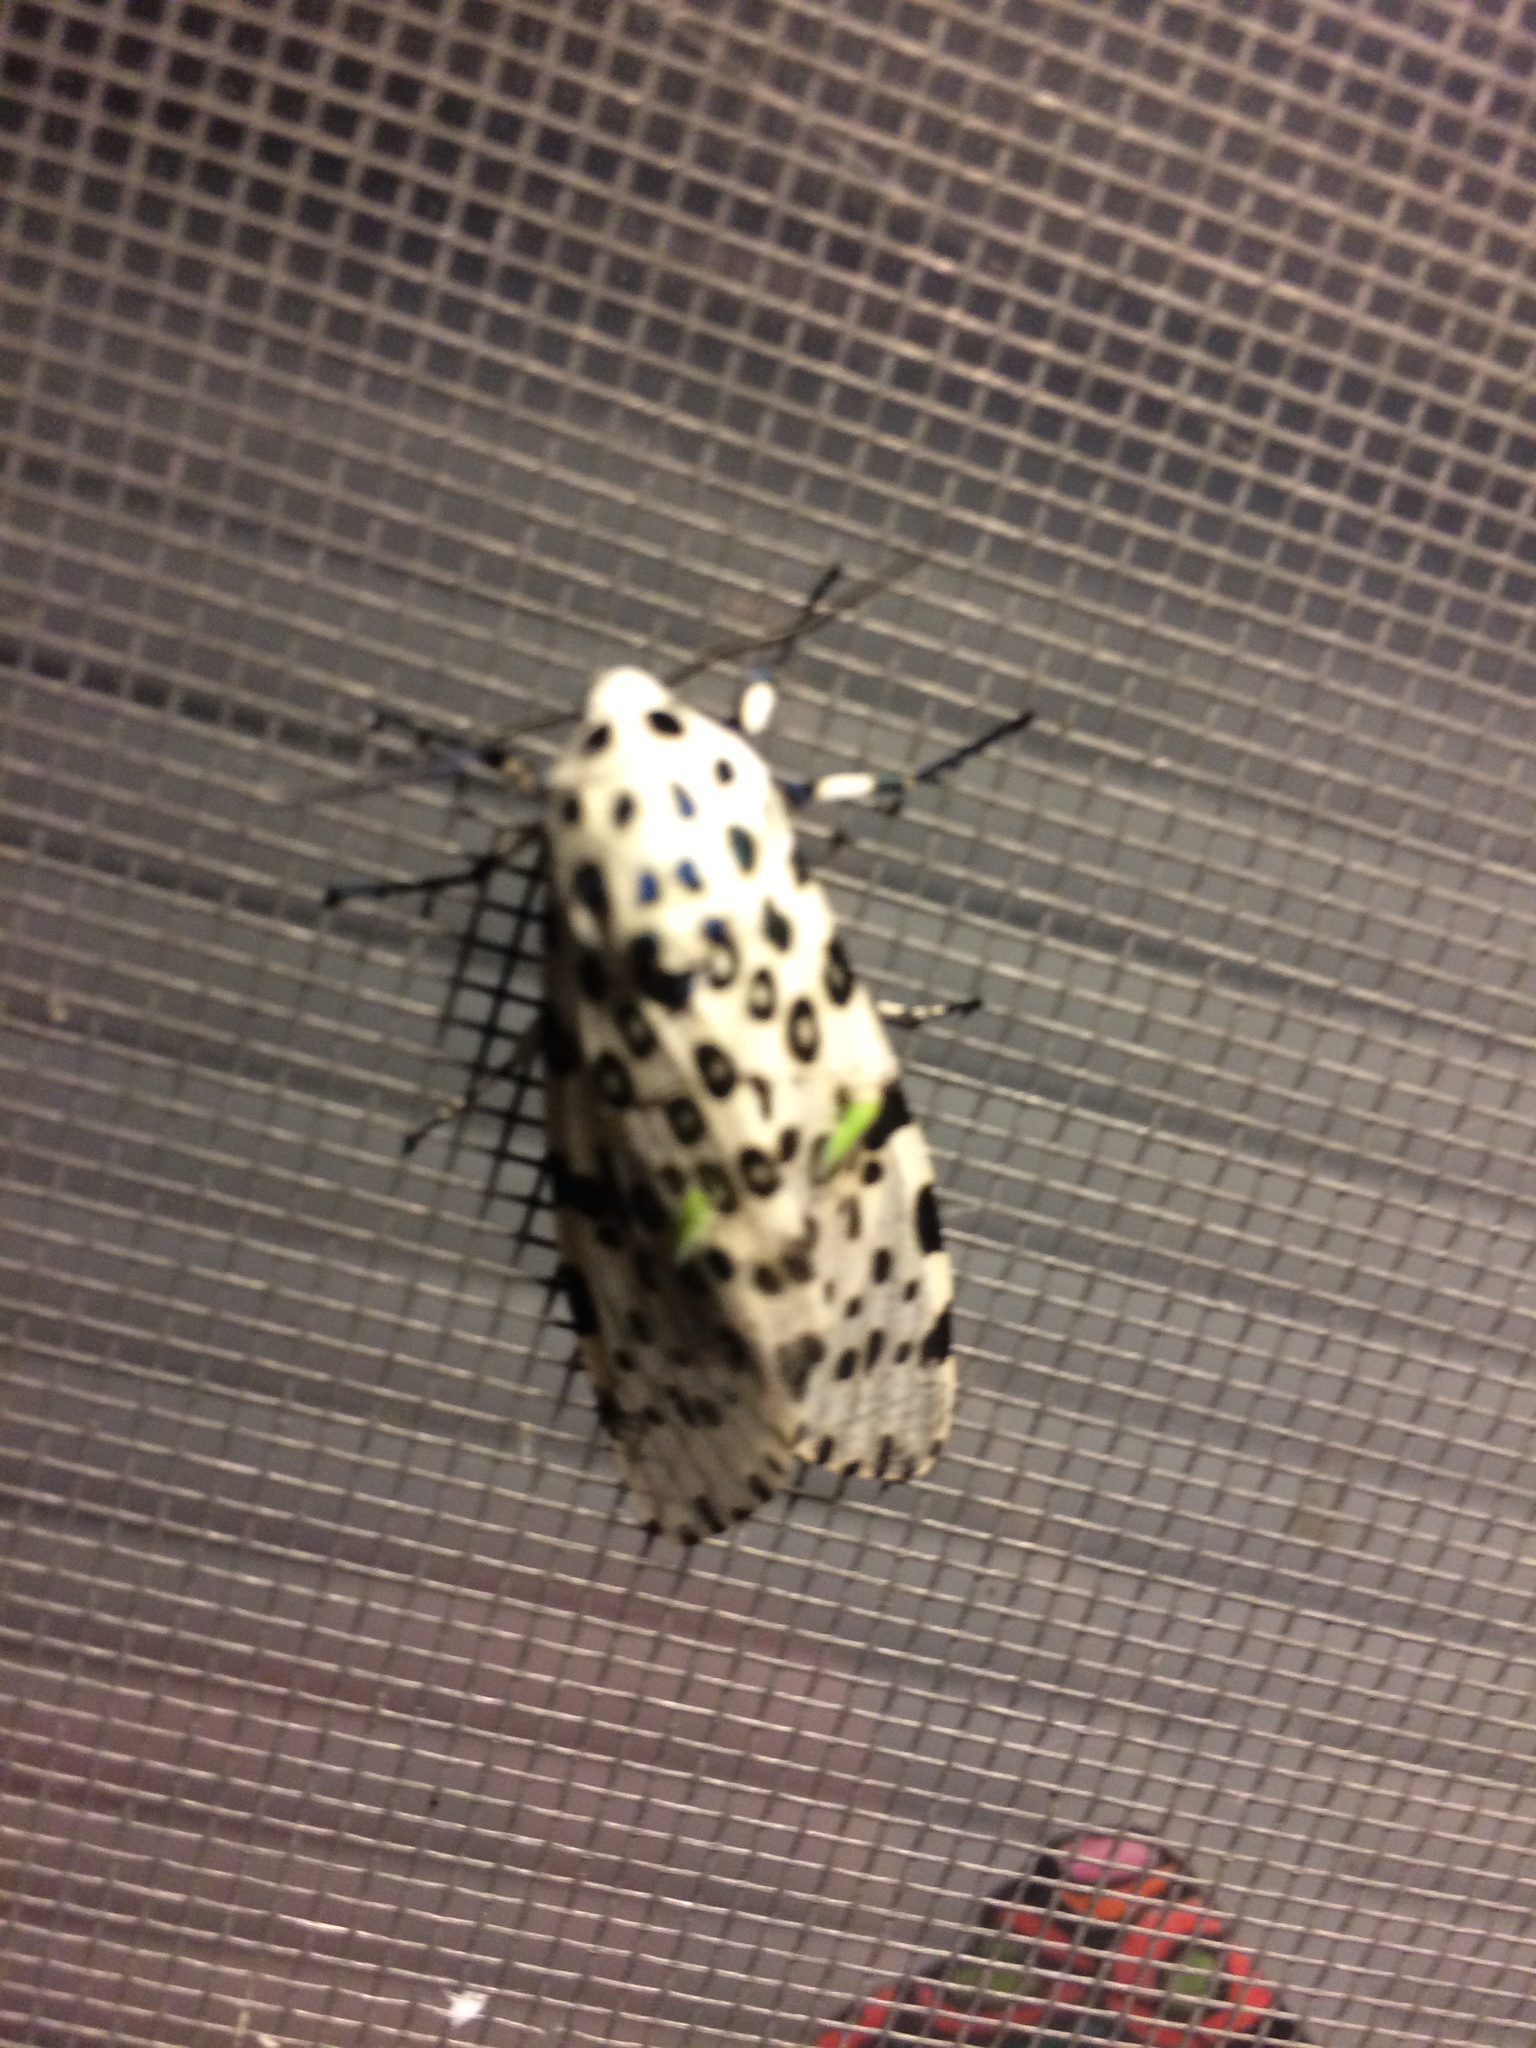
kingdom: Animalia
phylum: Arthropoda
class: Insecta
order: Lepidoptera
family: Erebidae
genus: Hypercompe
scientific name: Hypercompe scribonia
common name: Giant leopard moth
